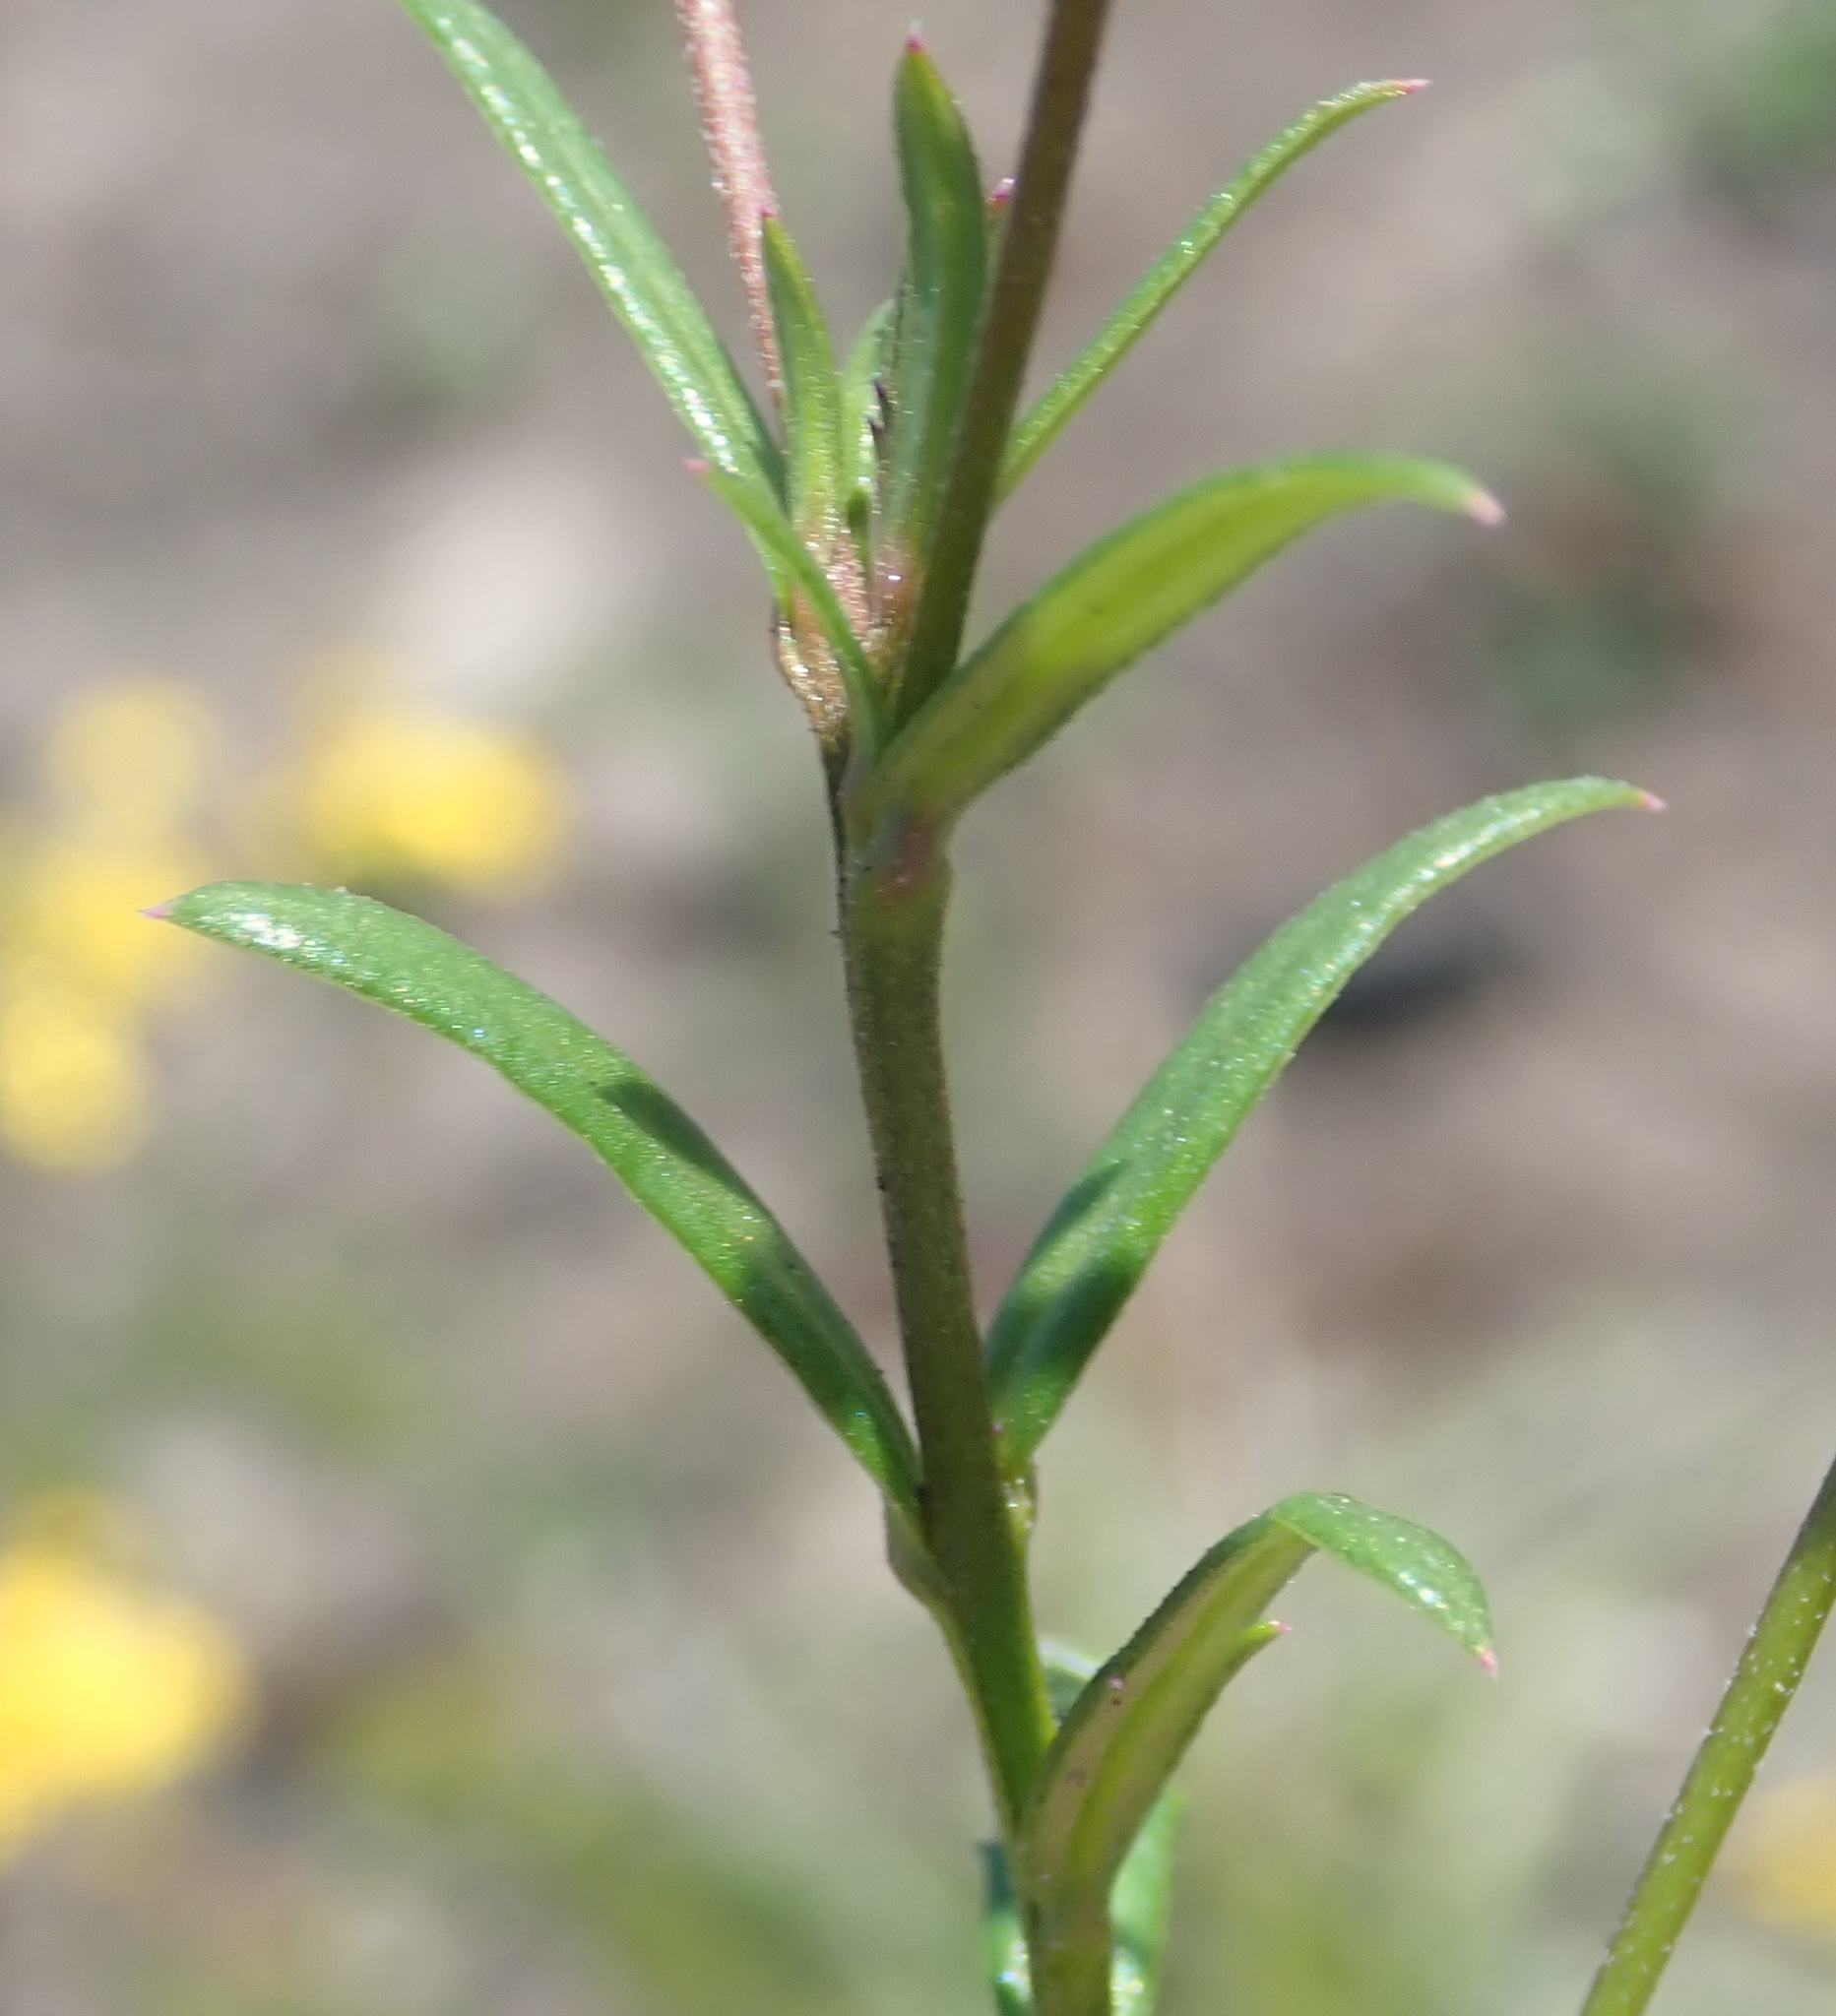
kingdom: Plantae
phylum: Tracheophyta
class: Magnoliopsida
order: Asterales
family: Campanulaceae
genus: Monopsis
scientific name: Monopsis unidentata
